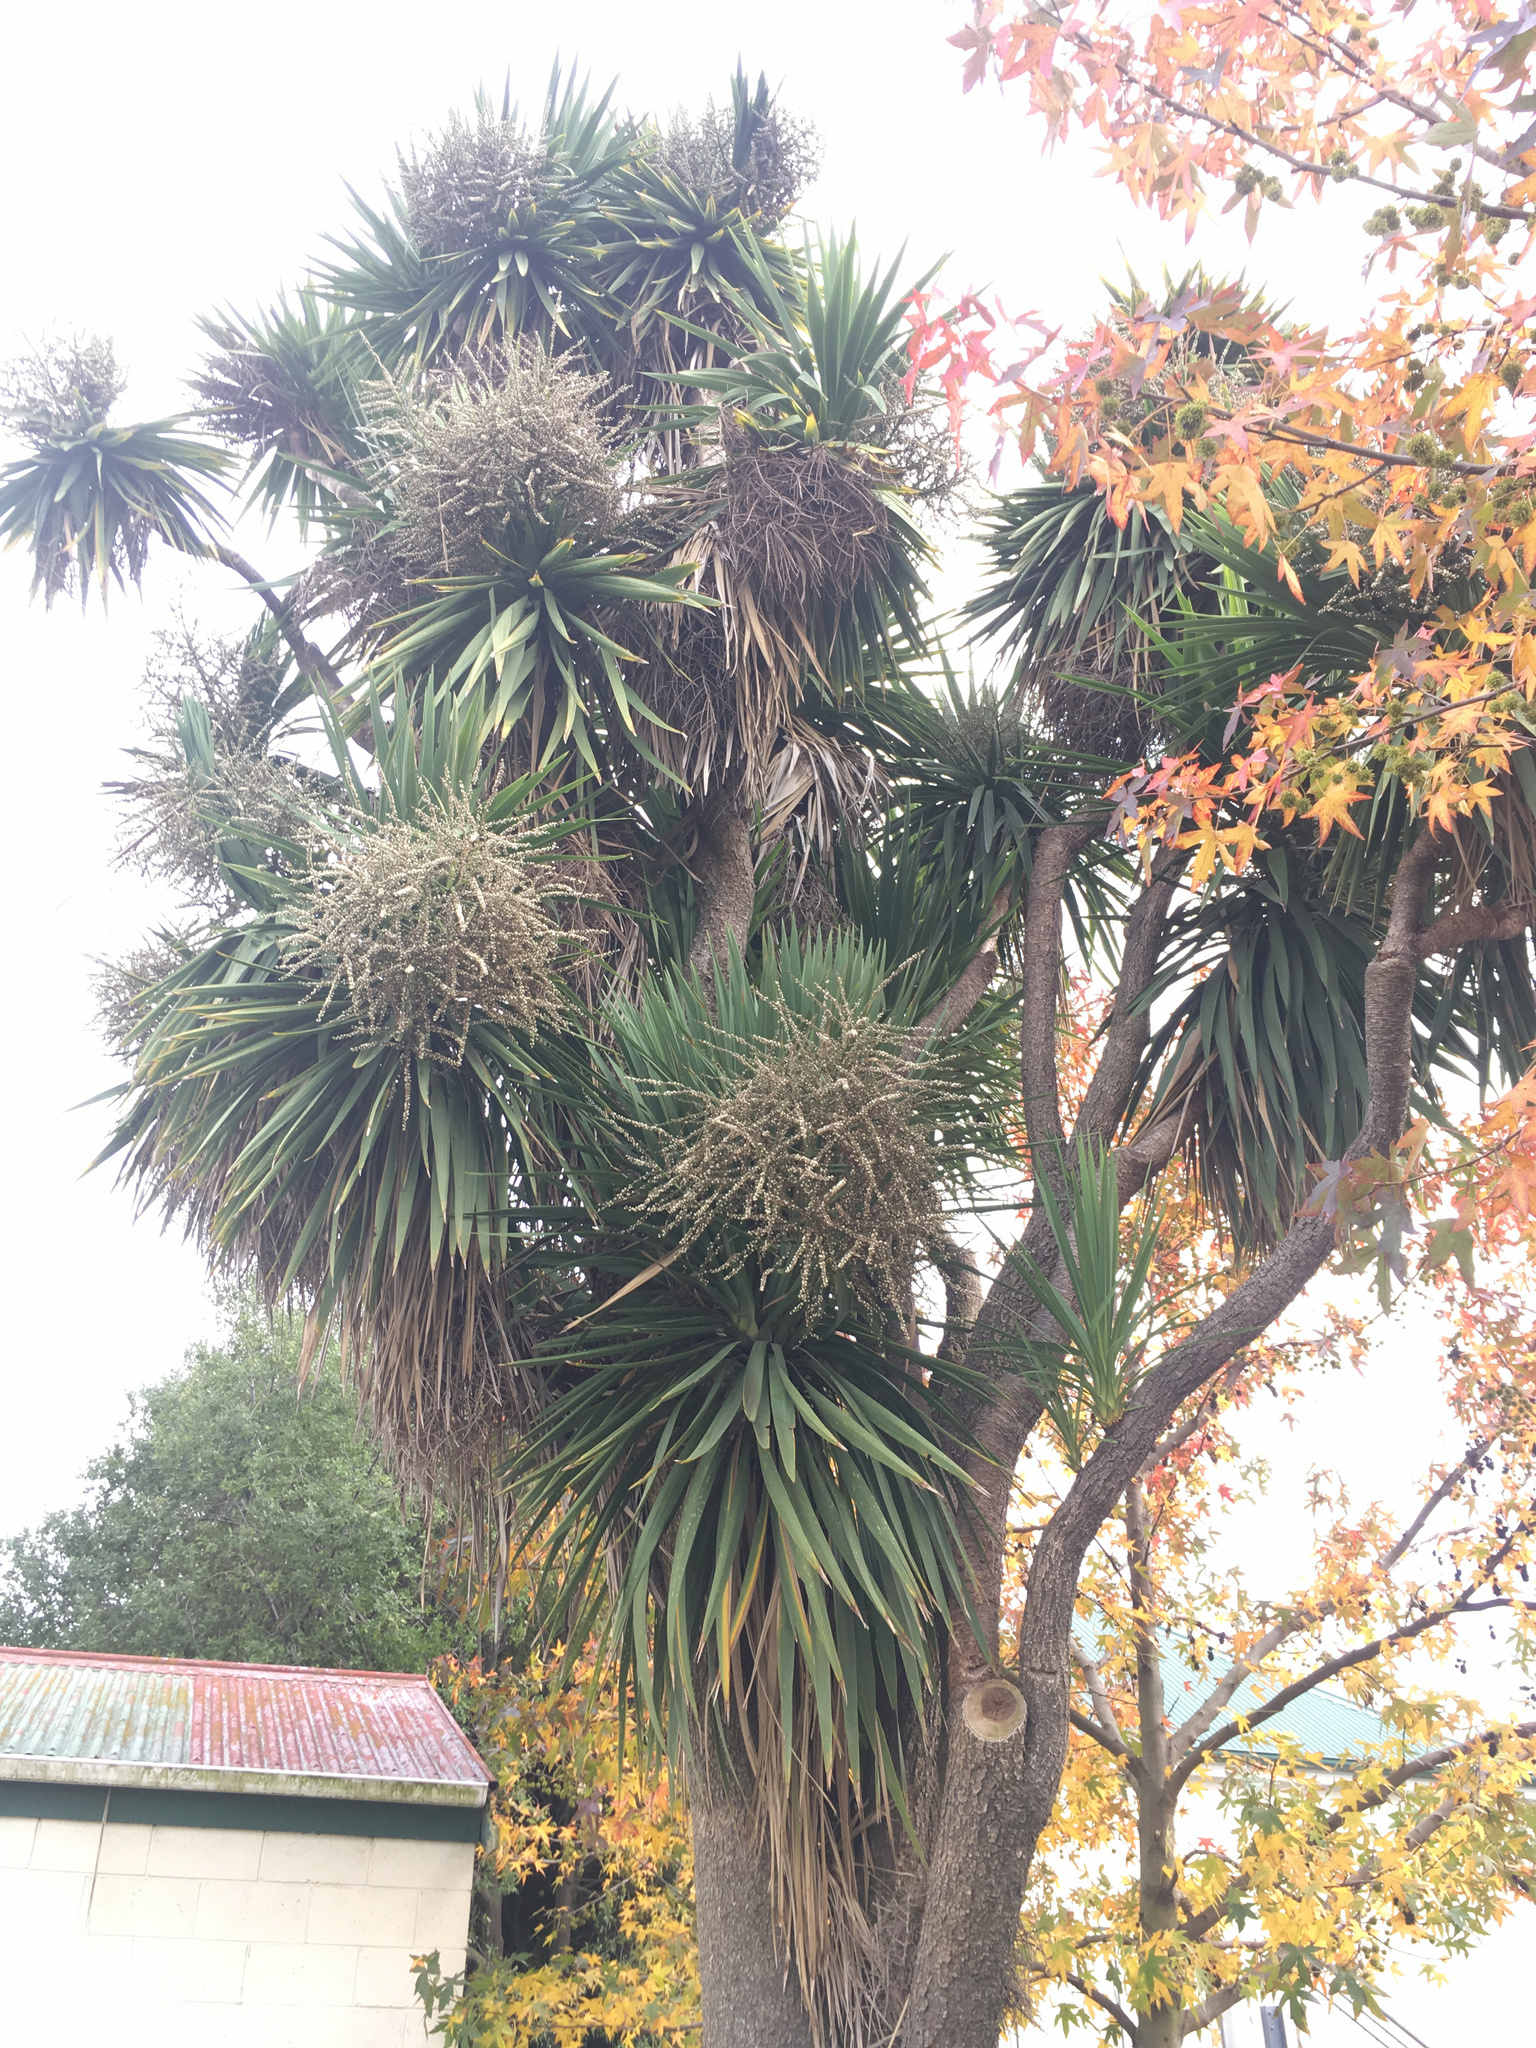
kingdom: Plantae
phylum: Tracheophyta
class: Liliopsida
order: Asparagales
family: Asparagaceae
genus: Cordyline
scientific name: Cordyline australis
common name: Cabbage-palm
